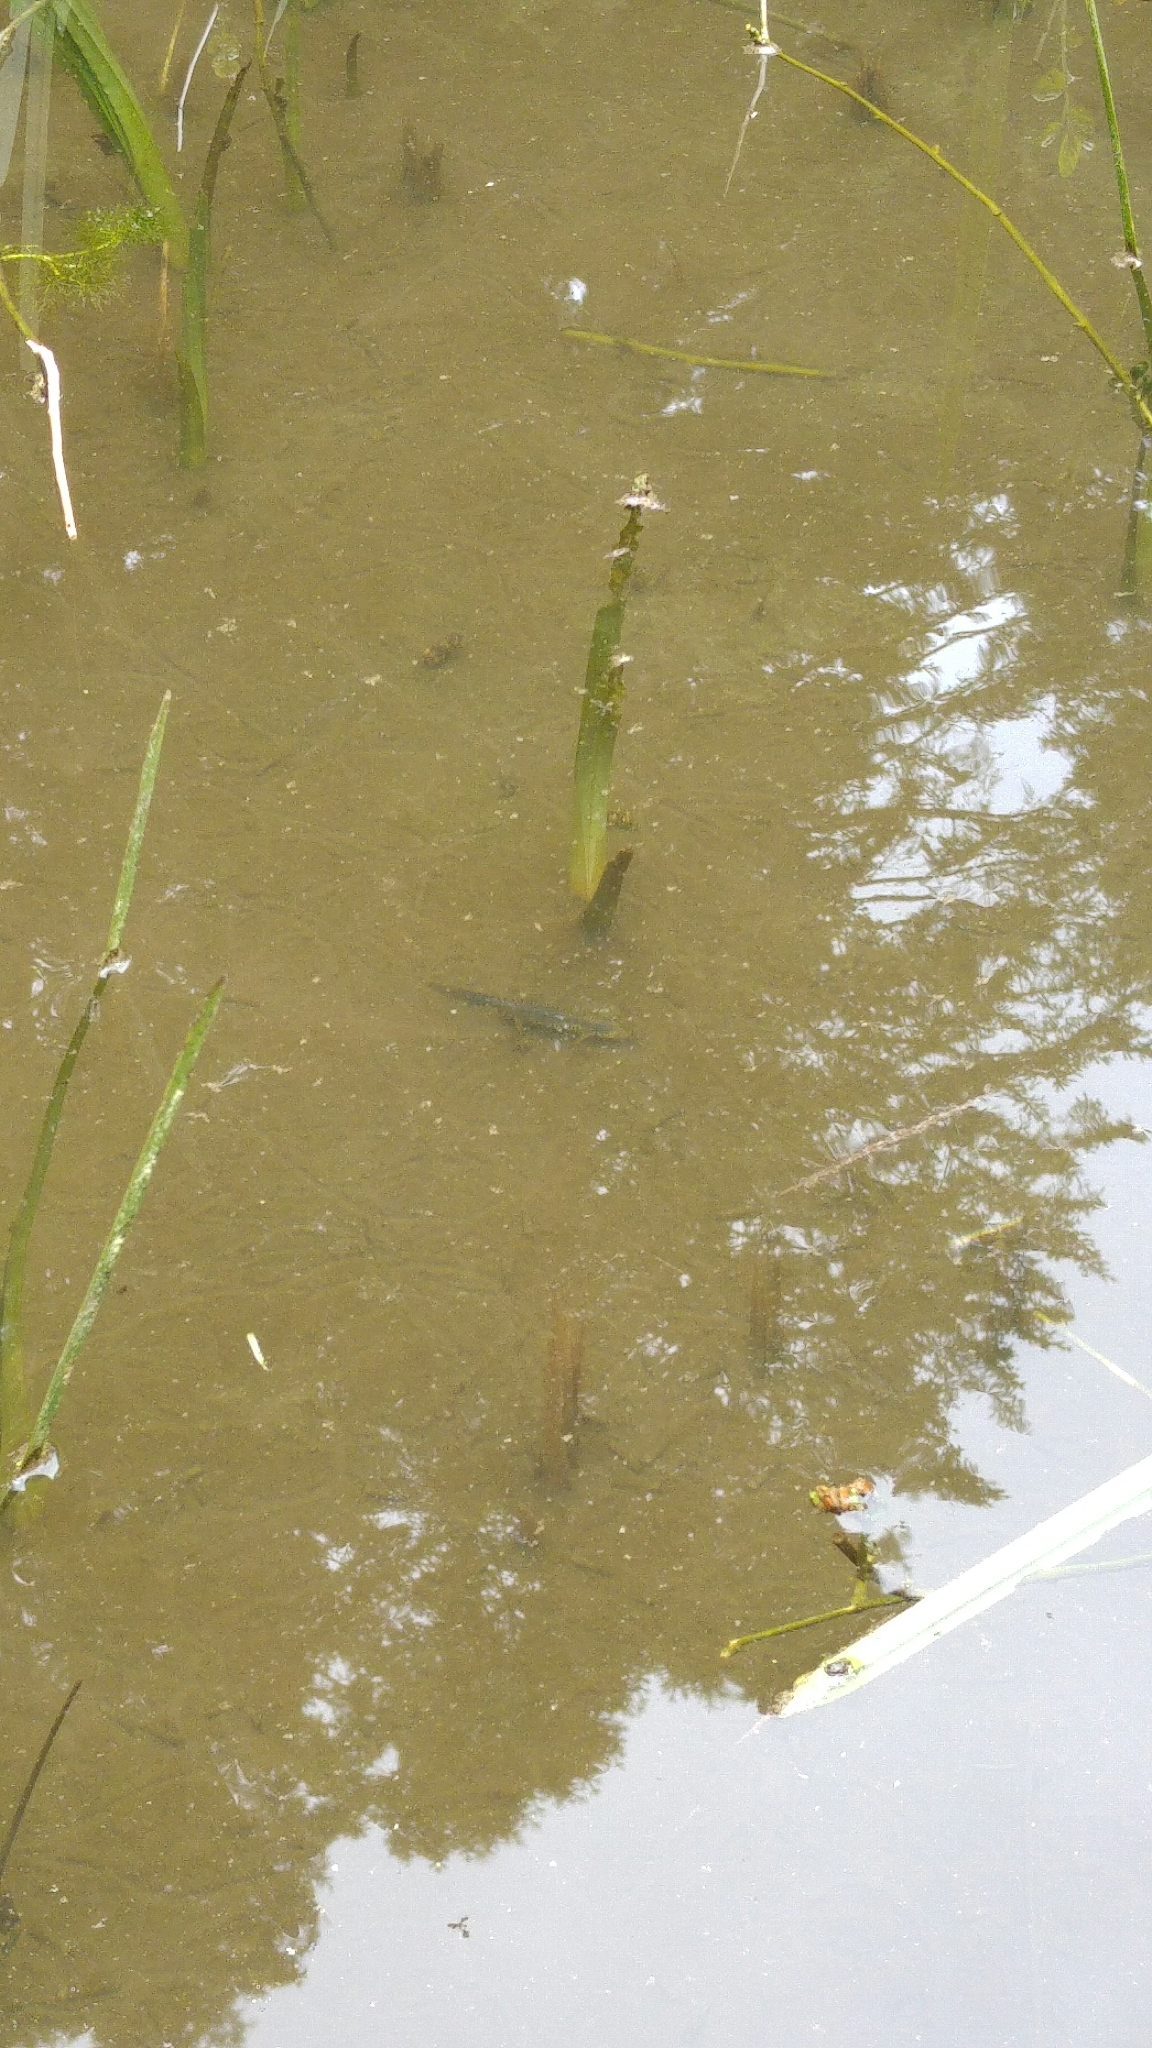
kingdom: Animalia
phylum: Chordata
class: Amphibia
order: Caudata
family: Salamandridae
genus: Ichthyosaura
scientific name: Ichthyosaura alpestris
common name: Alpine newt
